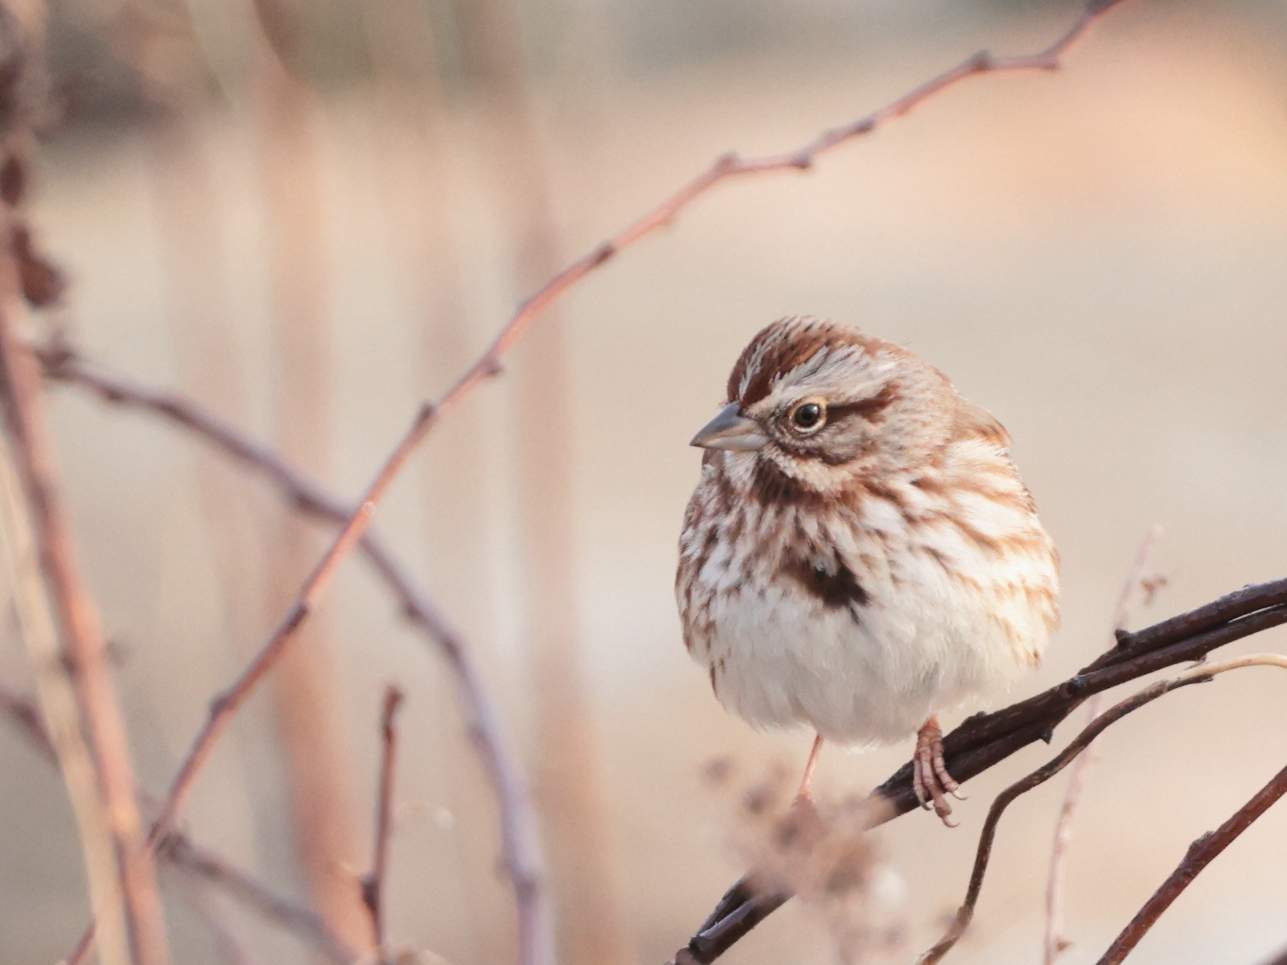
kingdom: Animalia
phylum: Chordata
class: Aves
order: Passeriformes
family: Passerellidae
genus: Melospiza
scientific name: Melospiza melodia
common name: Song sparrow
